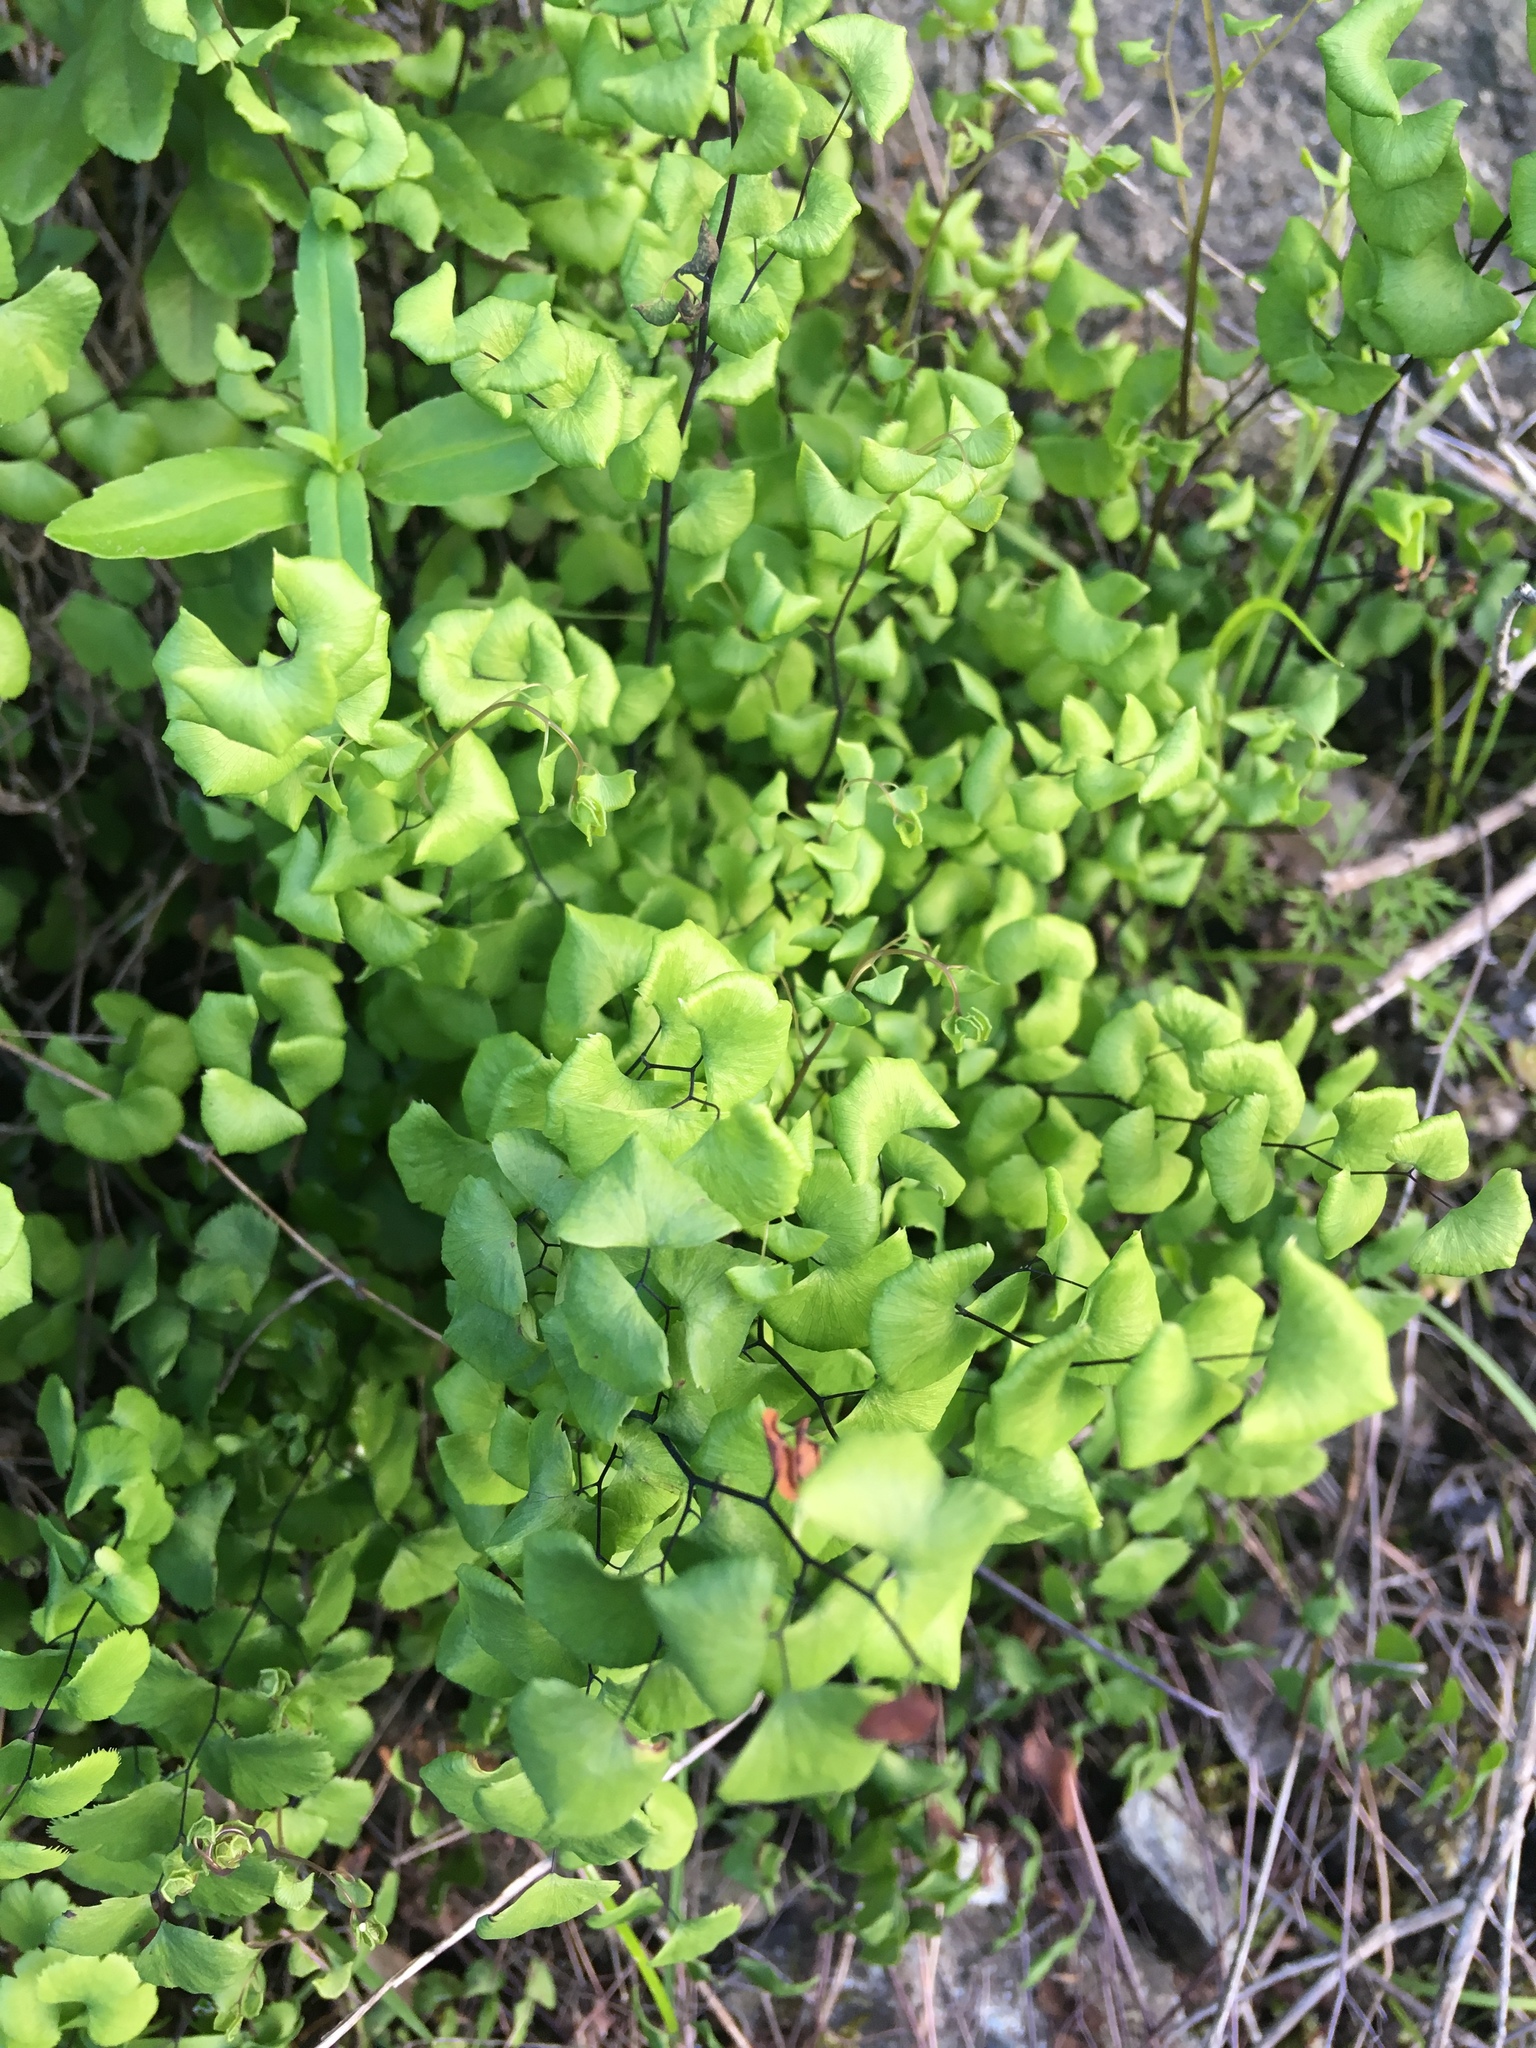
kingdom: Plantae
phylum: Tracheophyta
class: Polypodiopsida
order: Polypodiales
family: Pteridaceae
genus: Adiantum
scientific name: Adiantum jordanii
